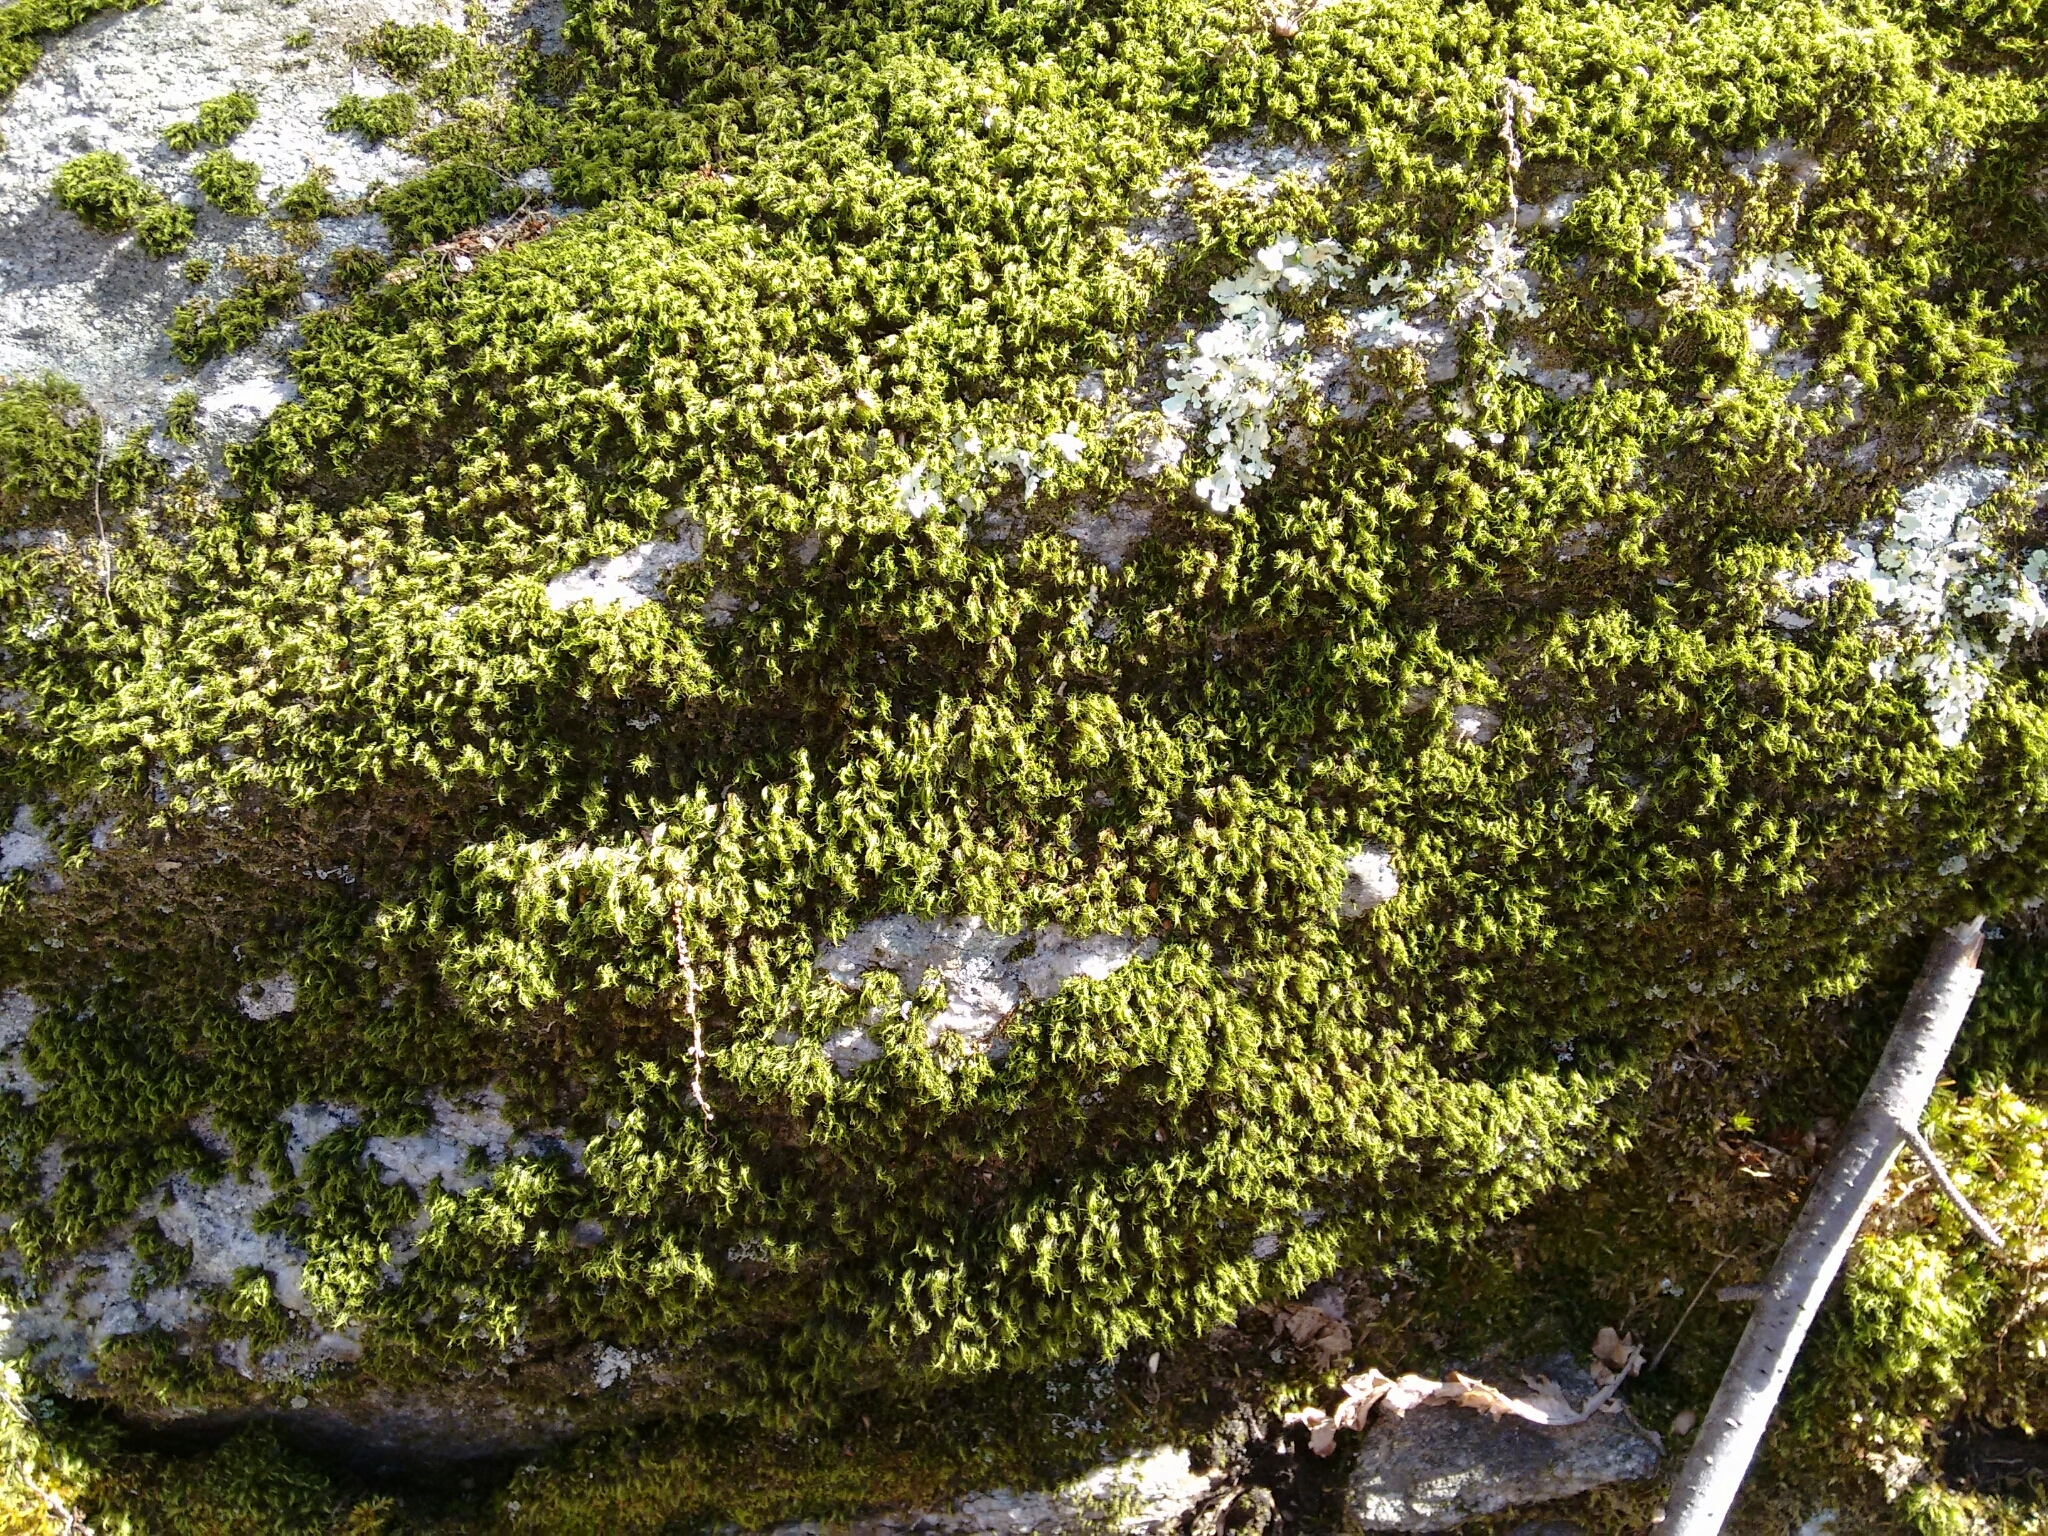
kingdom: Plantae
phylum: Bryophyta
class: Bryopsida
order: Dicranales
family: Dicranaceae
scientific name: Dicranaceae
